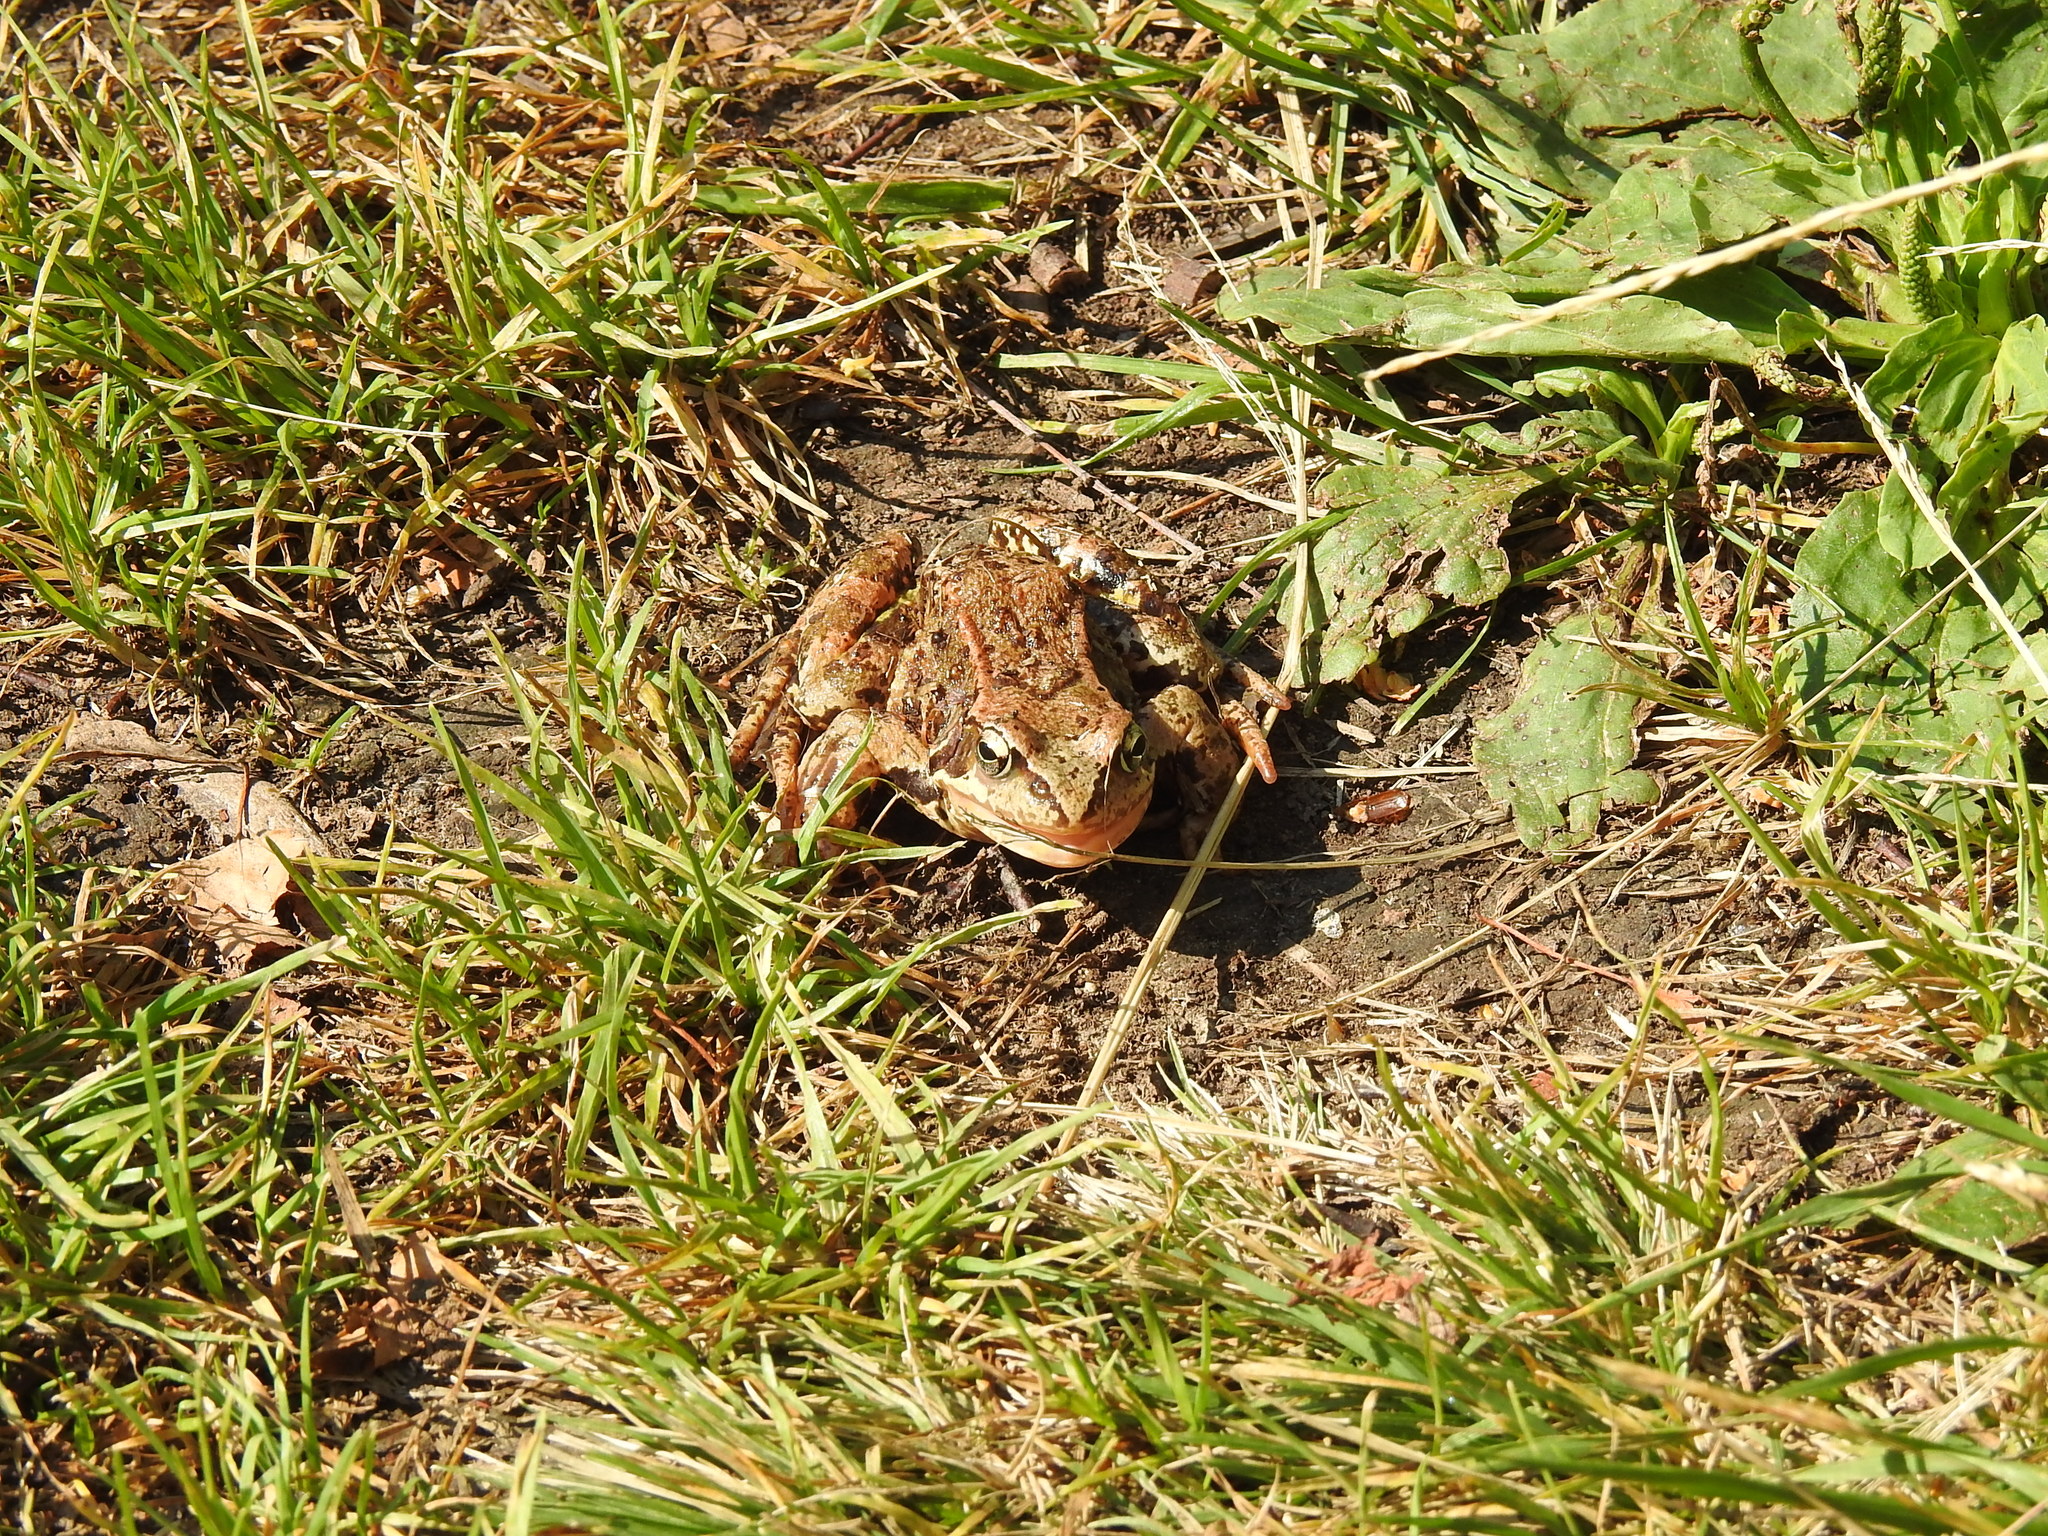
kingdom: Animalia
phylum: Chordata
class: Amphibia
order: Anura
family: Ranidae
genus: Rana
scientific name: Rana temporaria
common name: Common frog
